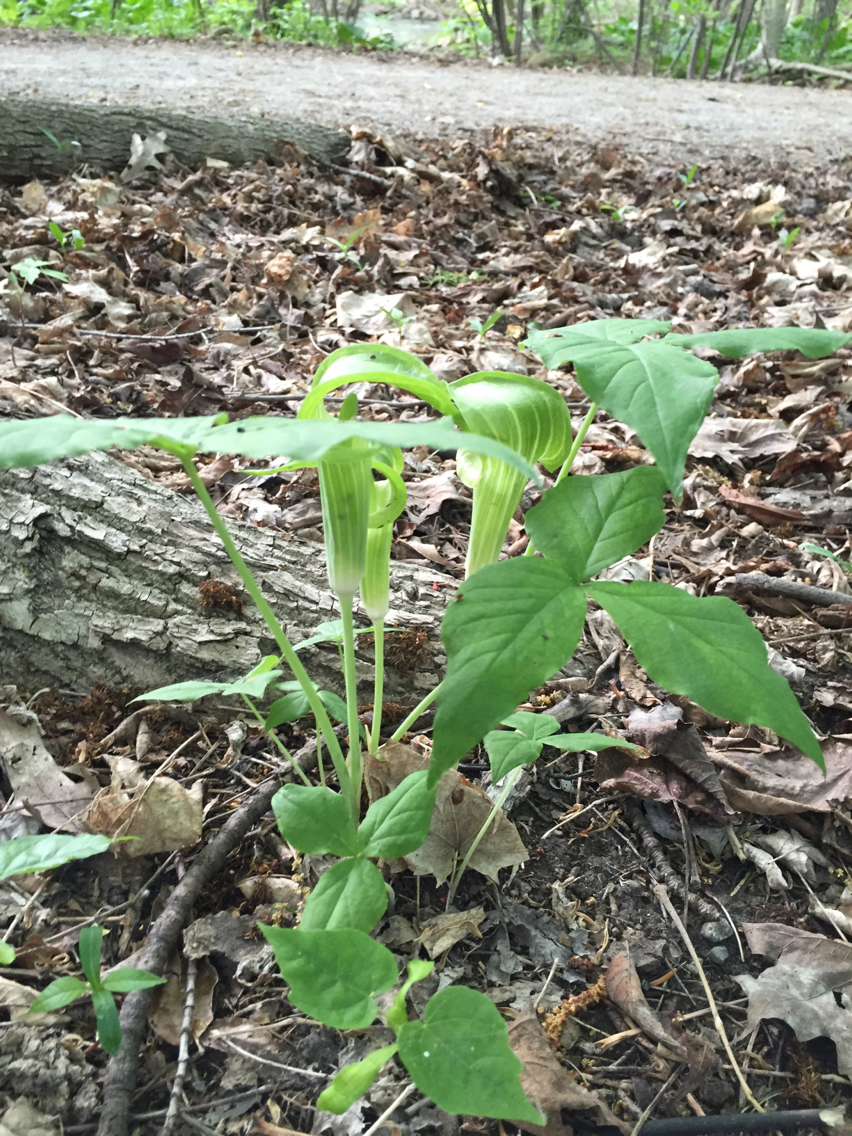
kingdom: Plantae
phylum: Tracheophyta
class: Liliopsida
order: Alismatales
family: Araceae
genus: Arisaema
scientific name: Arisaema triphyllum
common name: Jack-in-the-pulpit
